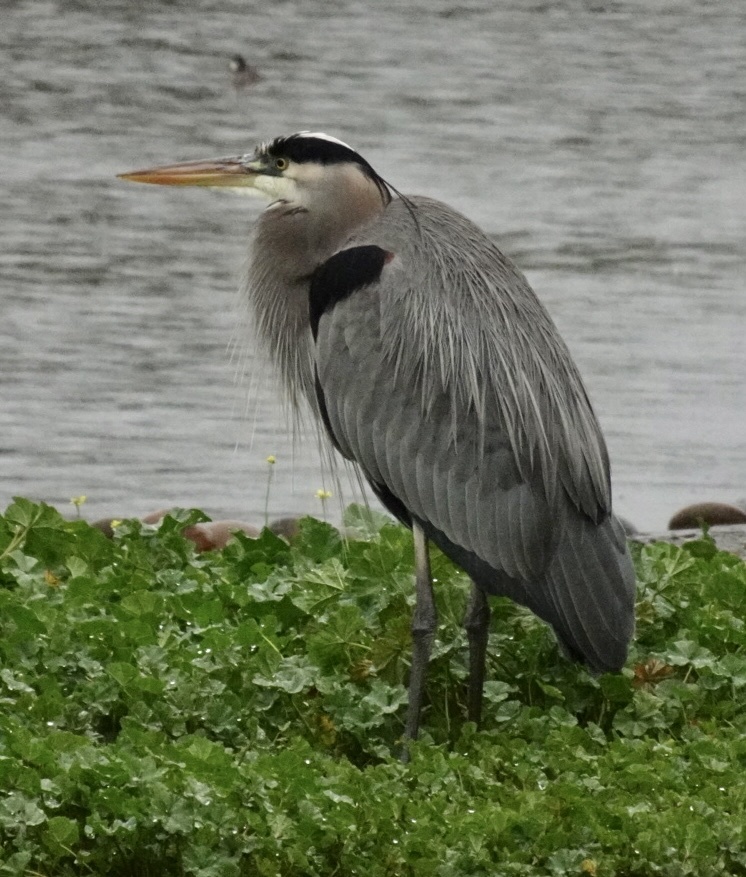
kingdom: Animalia
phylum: Chordata
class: Aves
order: Pelecaniformes
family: Ardeidae
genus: Ardea
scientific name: Ardea herodias
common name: Great blue heron
